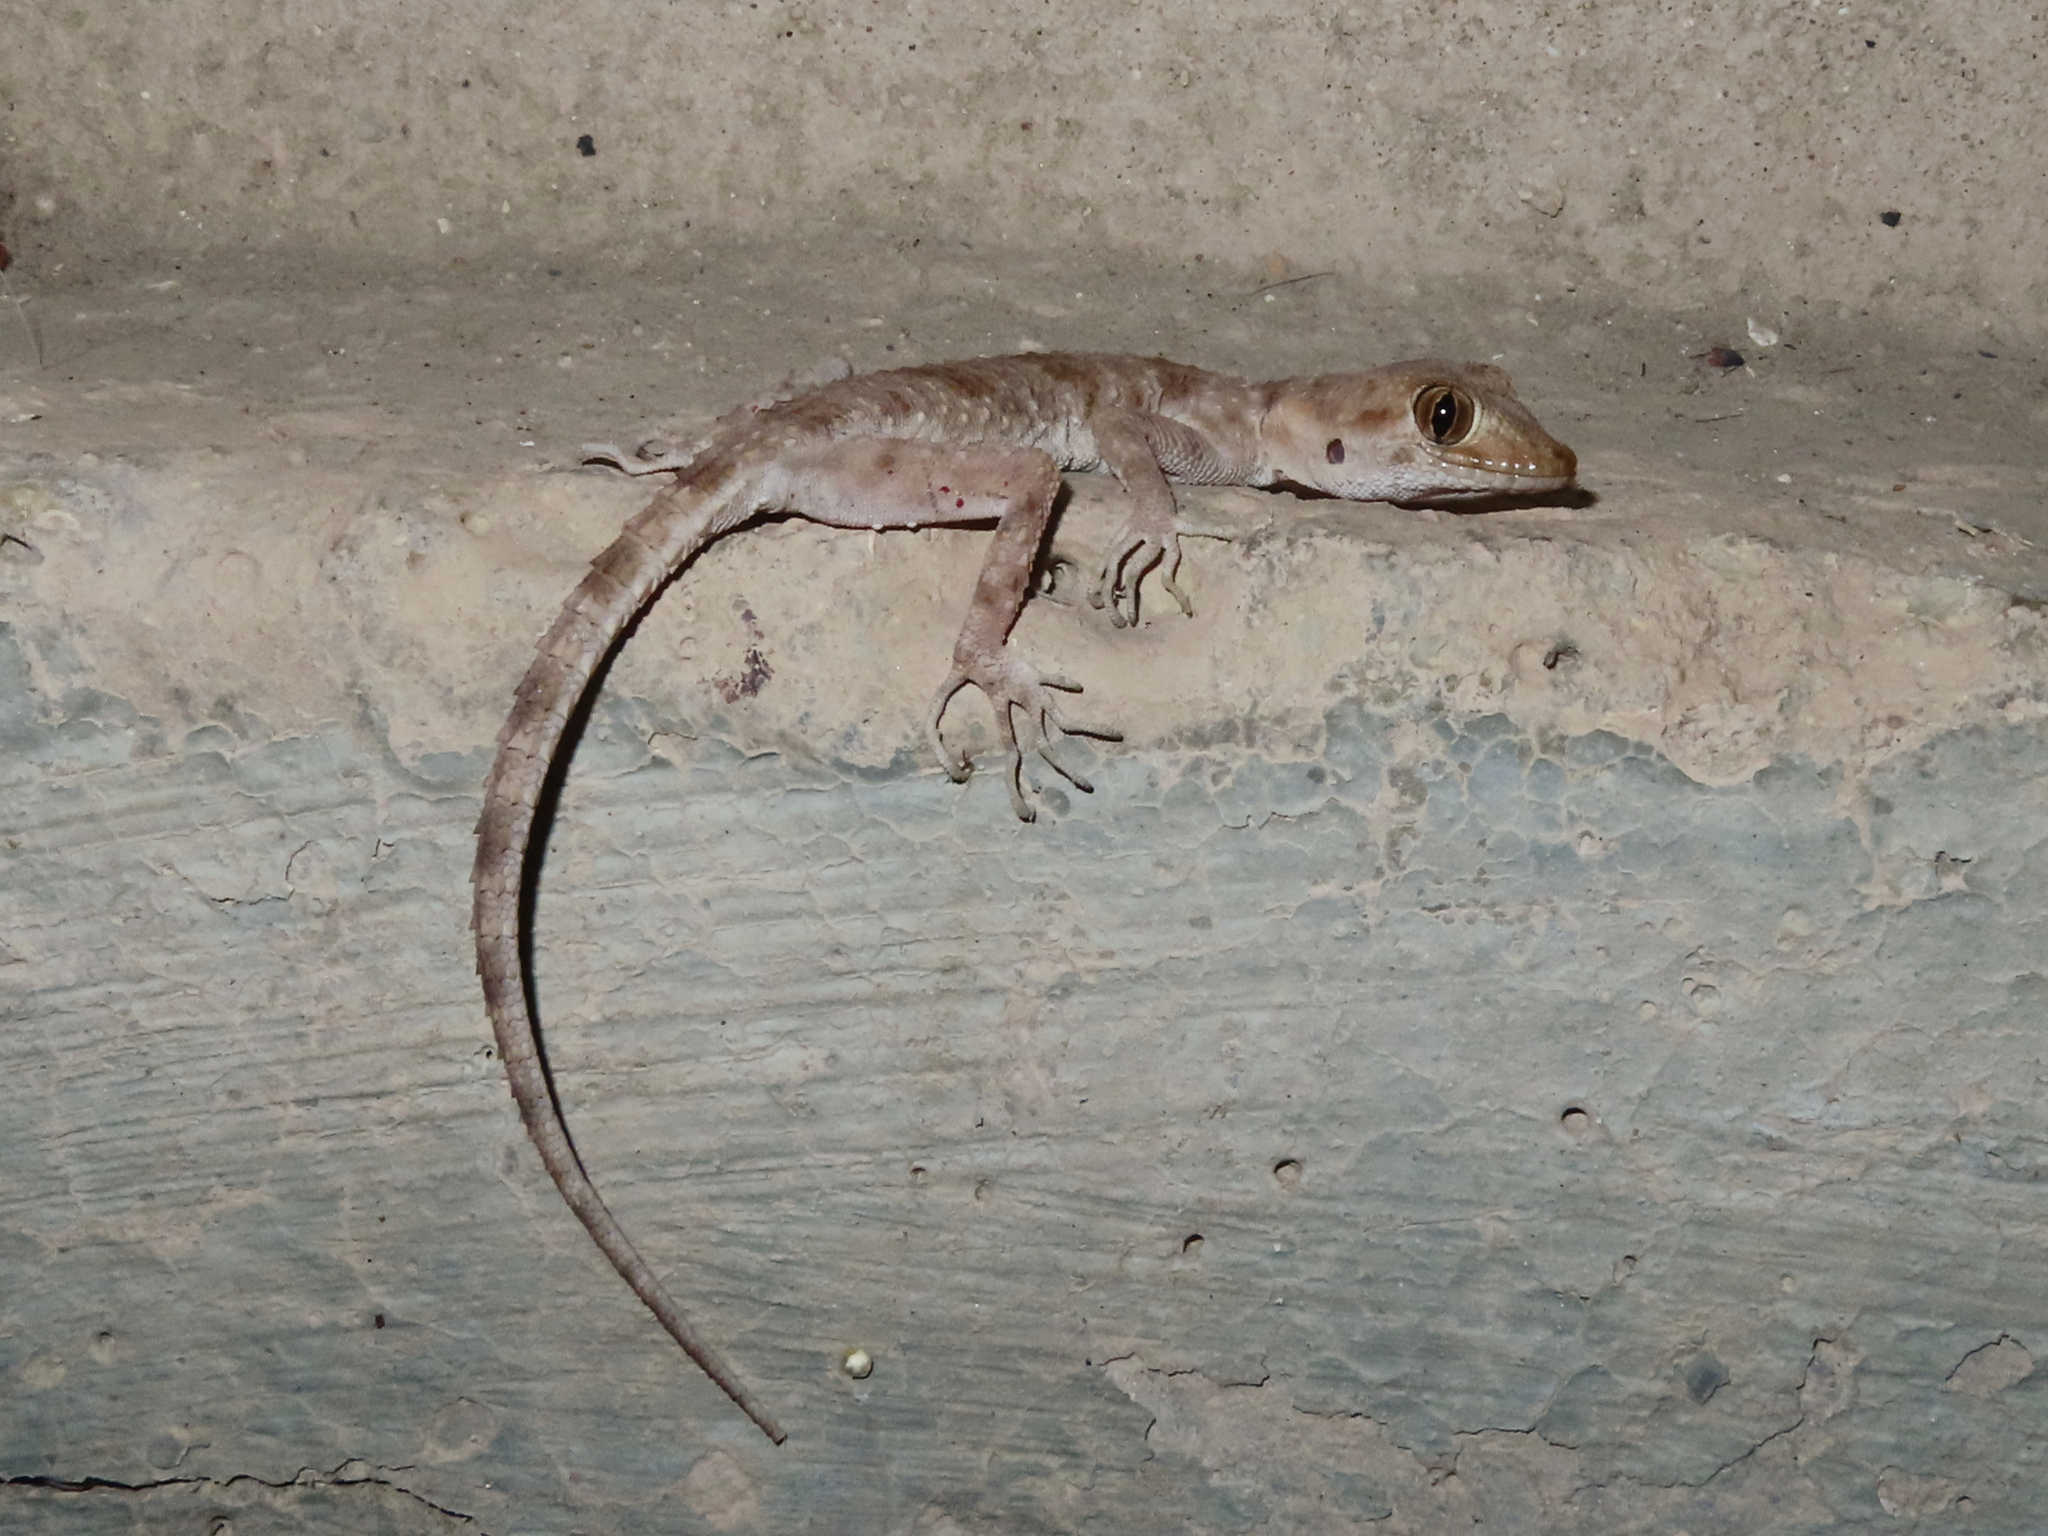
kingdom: Animalia
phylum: Chordata
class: Squamata
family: Gekkonidae
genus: Tenuidactylus
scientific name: Tenuidactylus caspius
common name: Caspian bent-toed gecko
